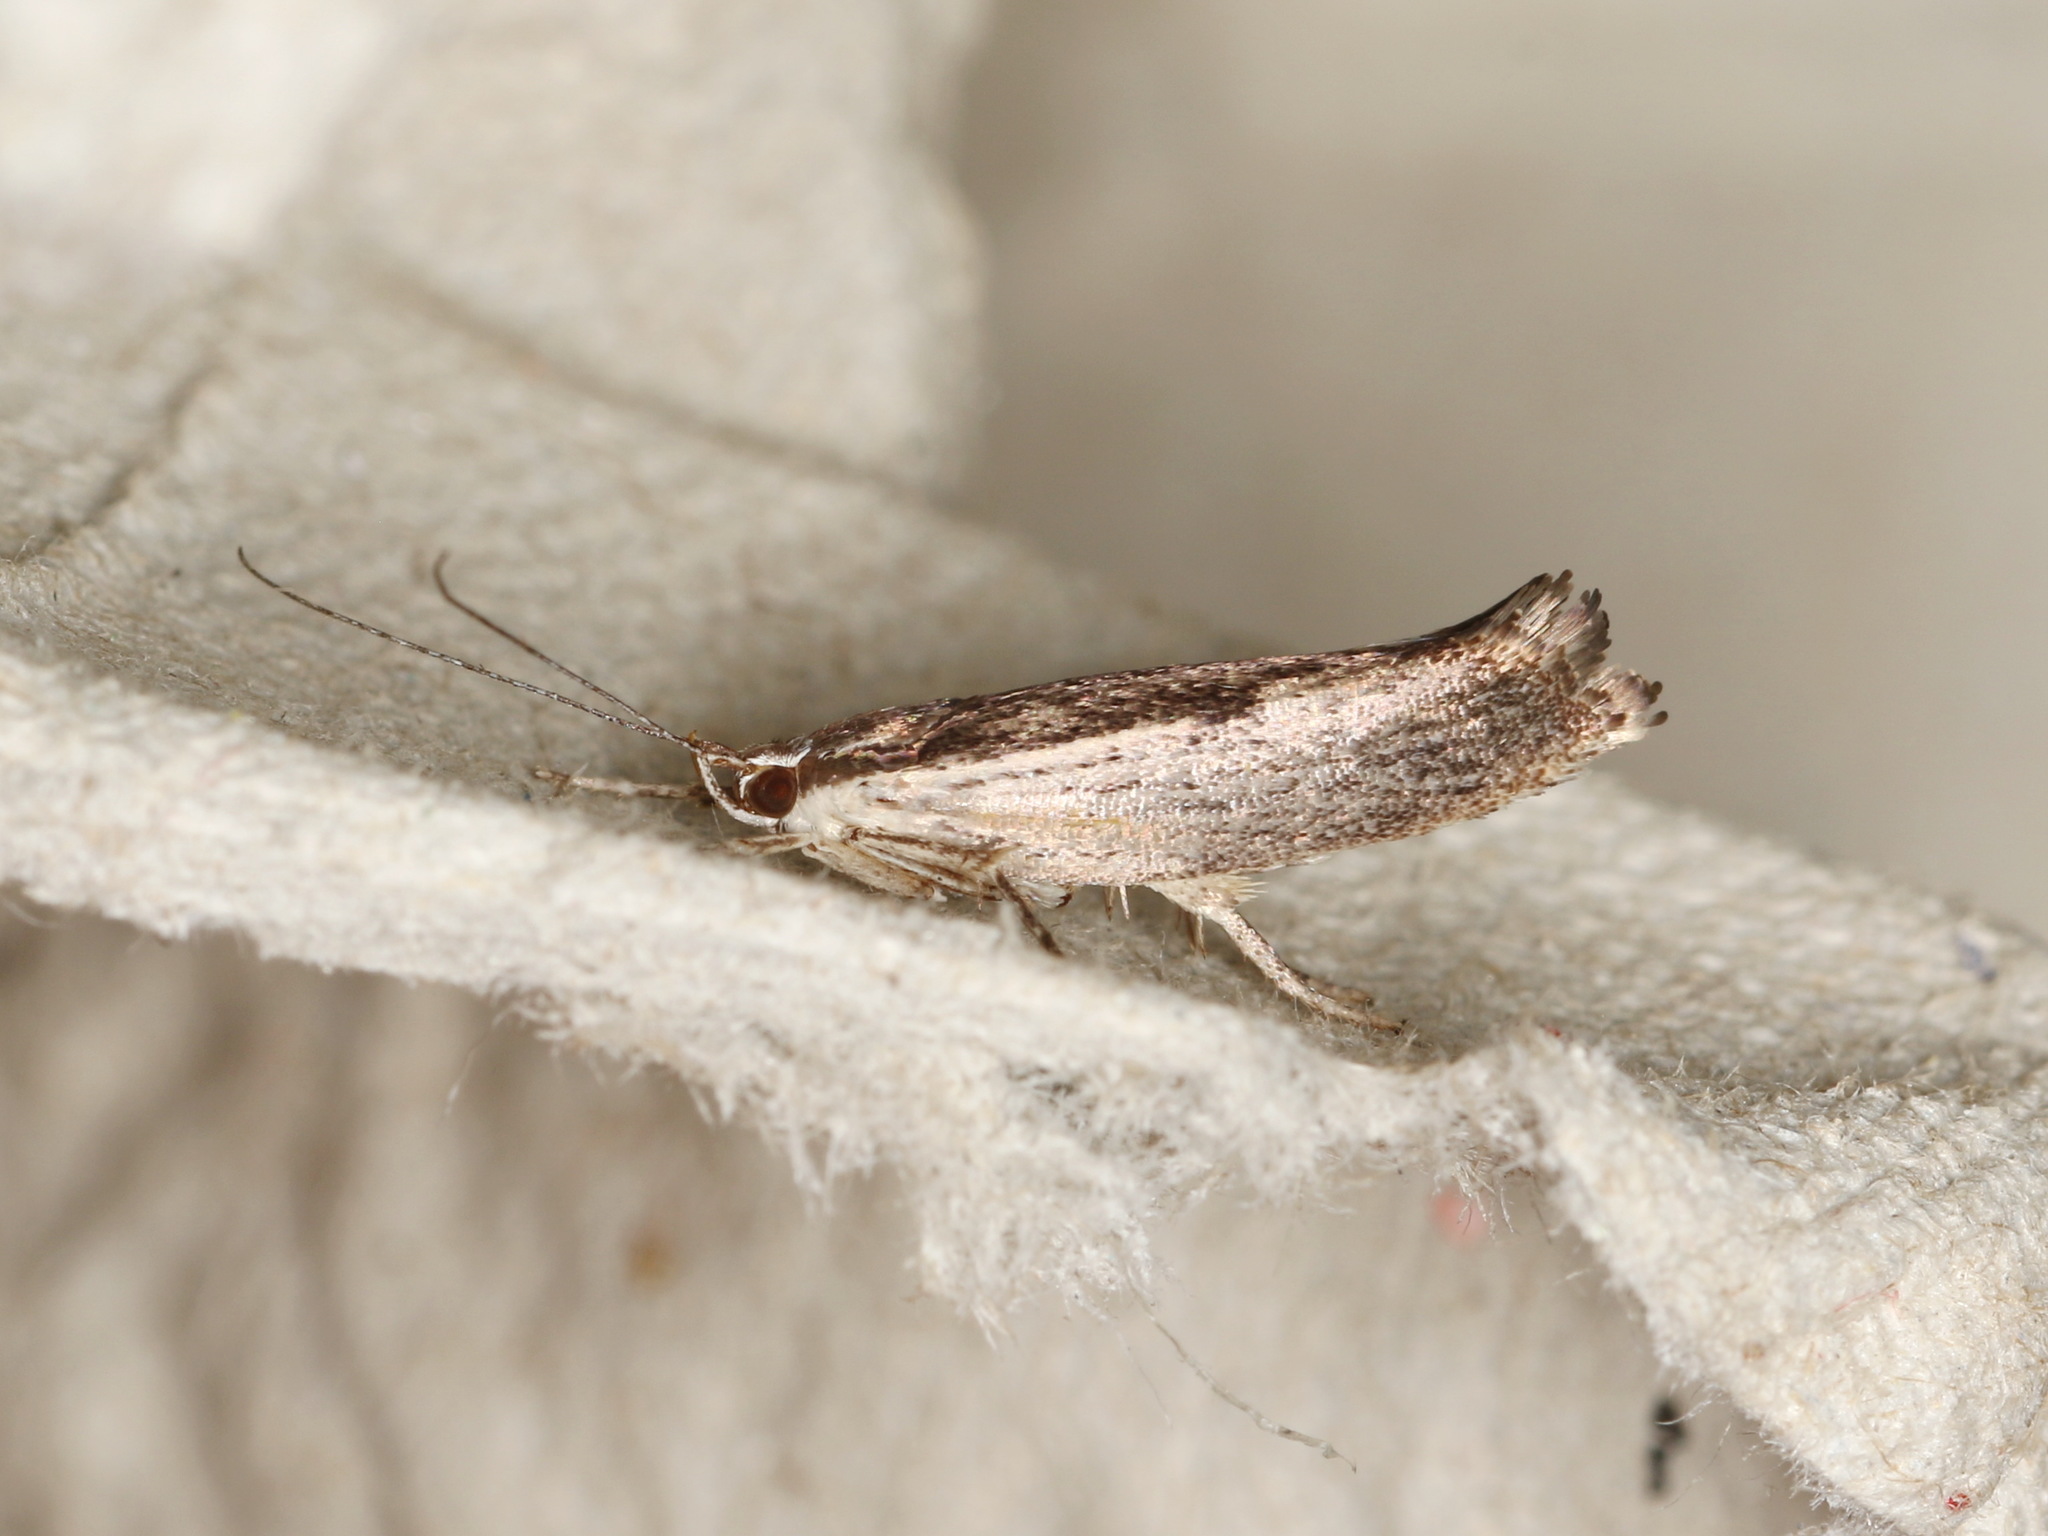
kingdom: Animalia
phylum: Arthropoda
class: Insecta
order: Lepidoptera
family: Xyloryctidae
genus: Phthonerodes
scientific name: Phthonerodes peridela
